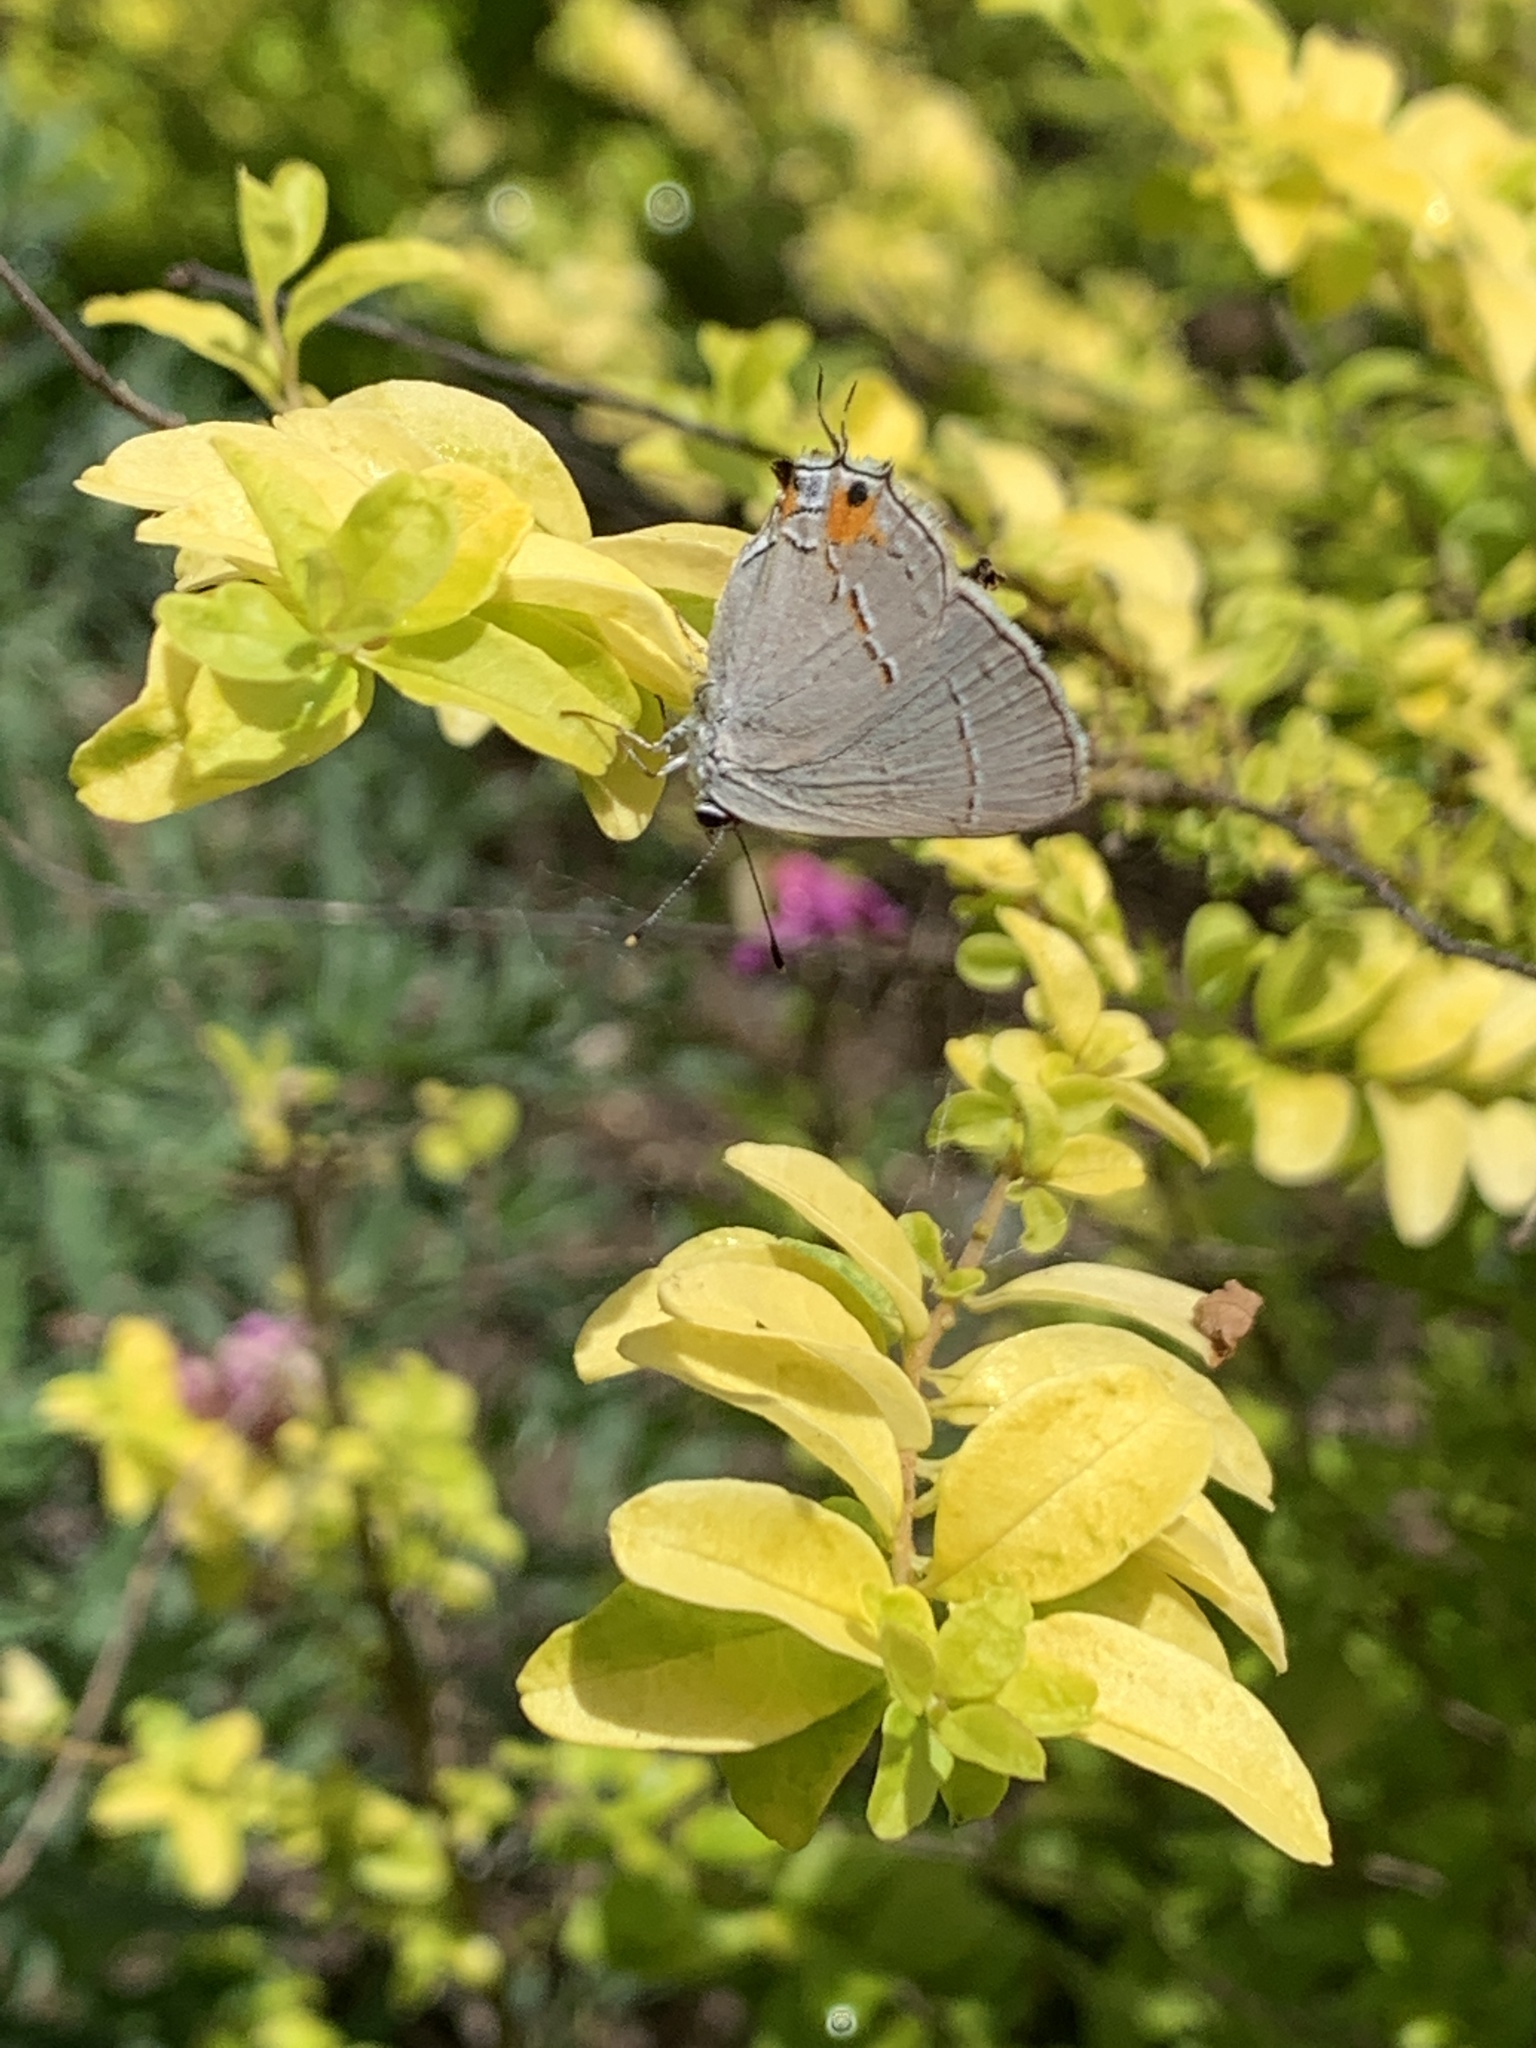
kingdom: Animalia
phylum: Arthropoda
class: Insecta
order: Lepidoptera
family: Lycaenidae
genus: Strymon
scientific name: Strymon melinus
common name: Gray hairstreak
